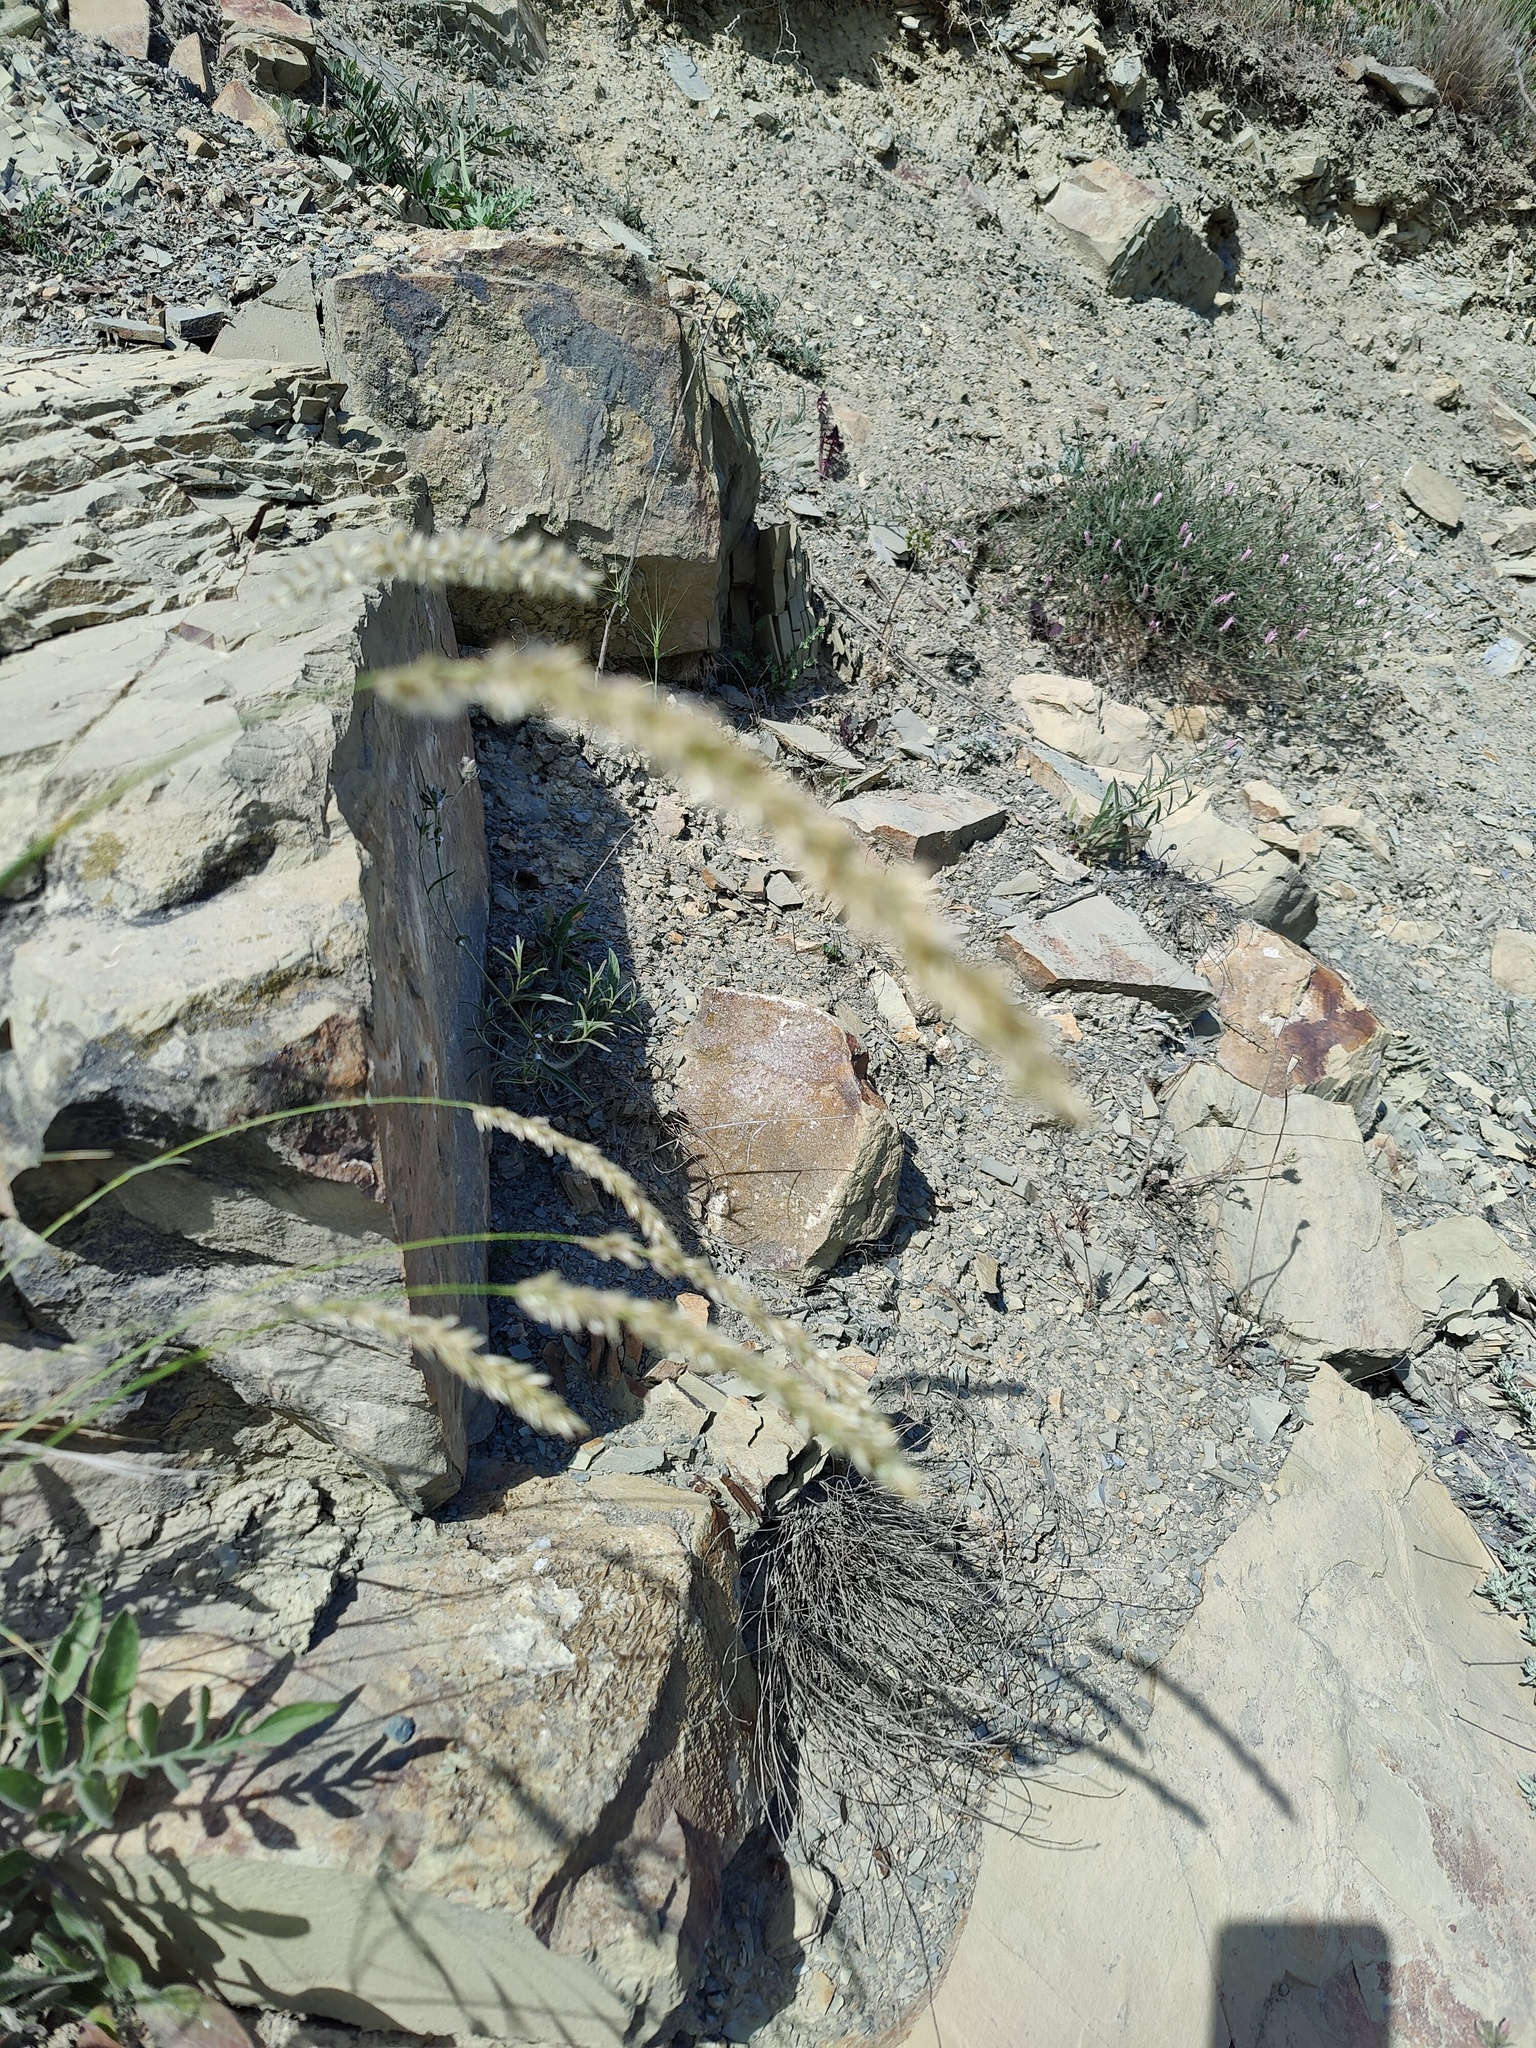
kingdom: Plantae
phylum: Tracheophyta
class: Liliopsida
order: Poales
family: Poaceae
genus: Melica
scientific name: Melica transsilvanica
